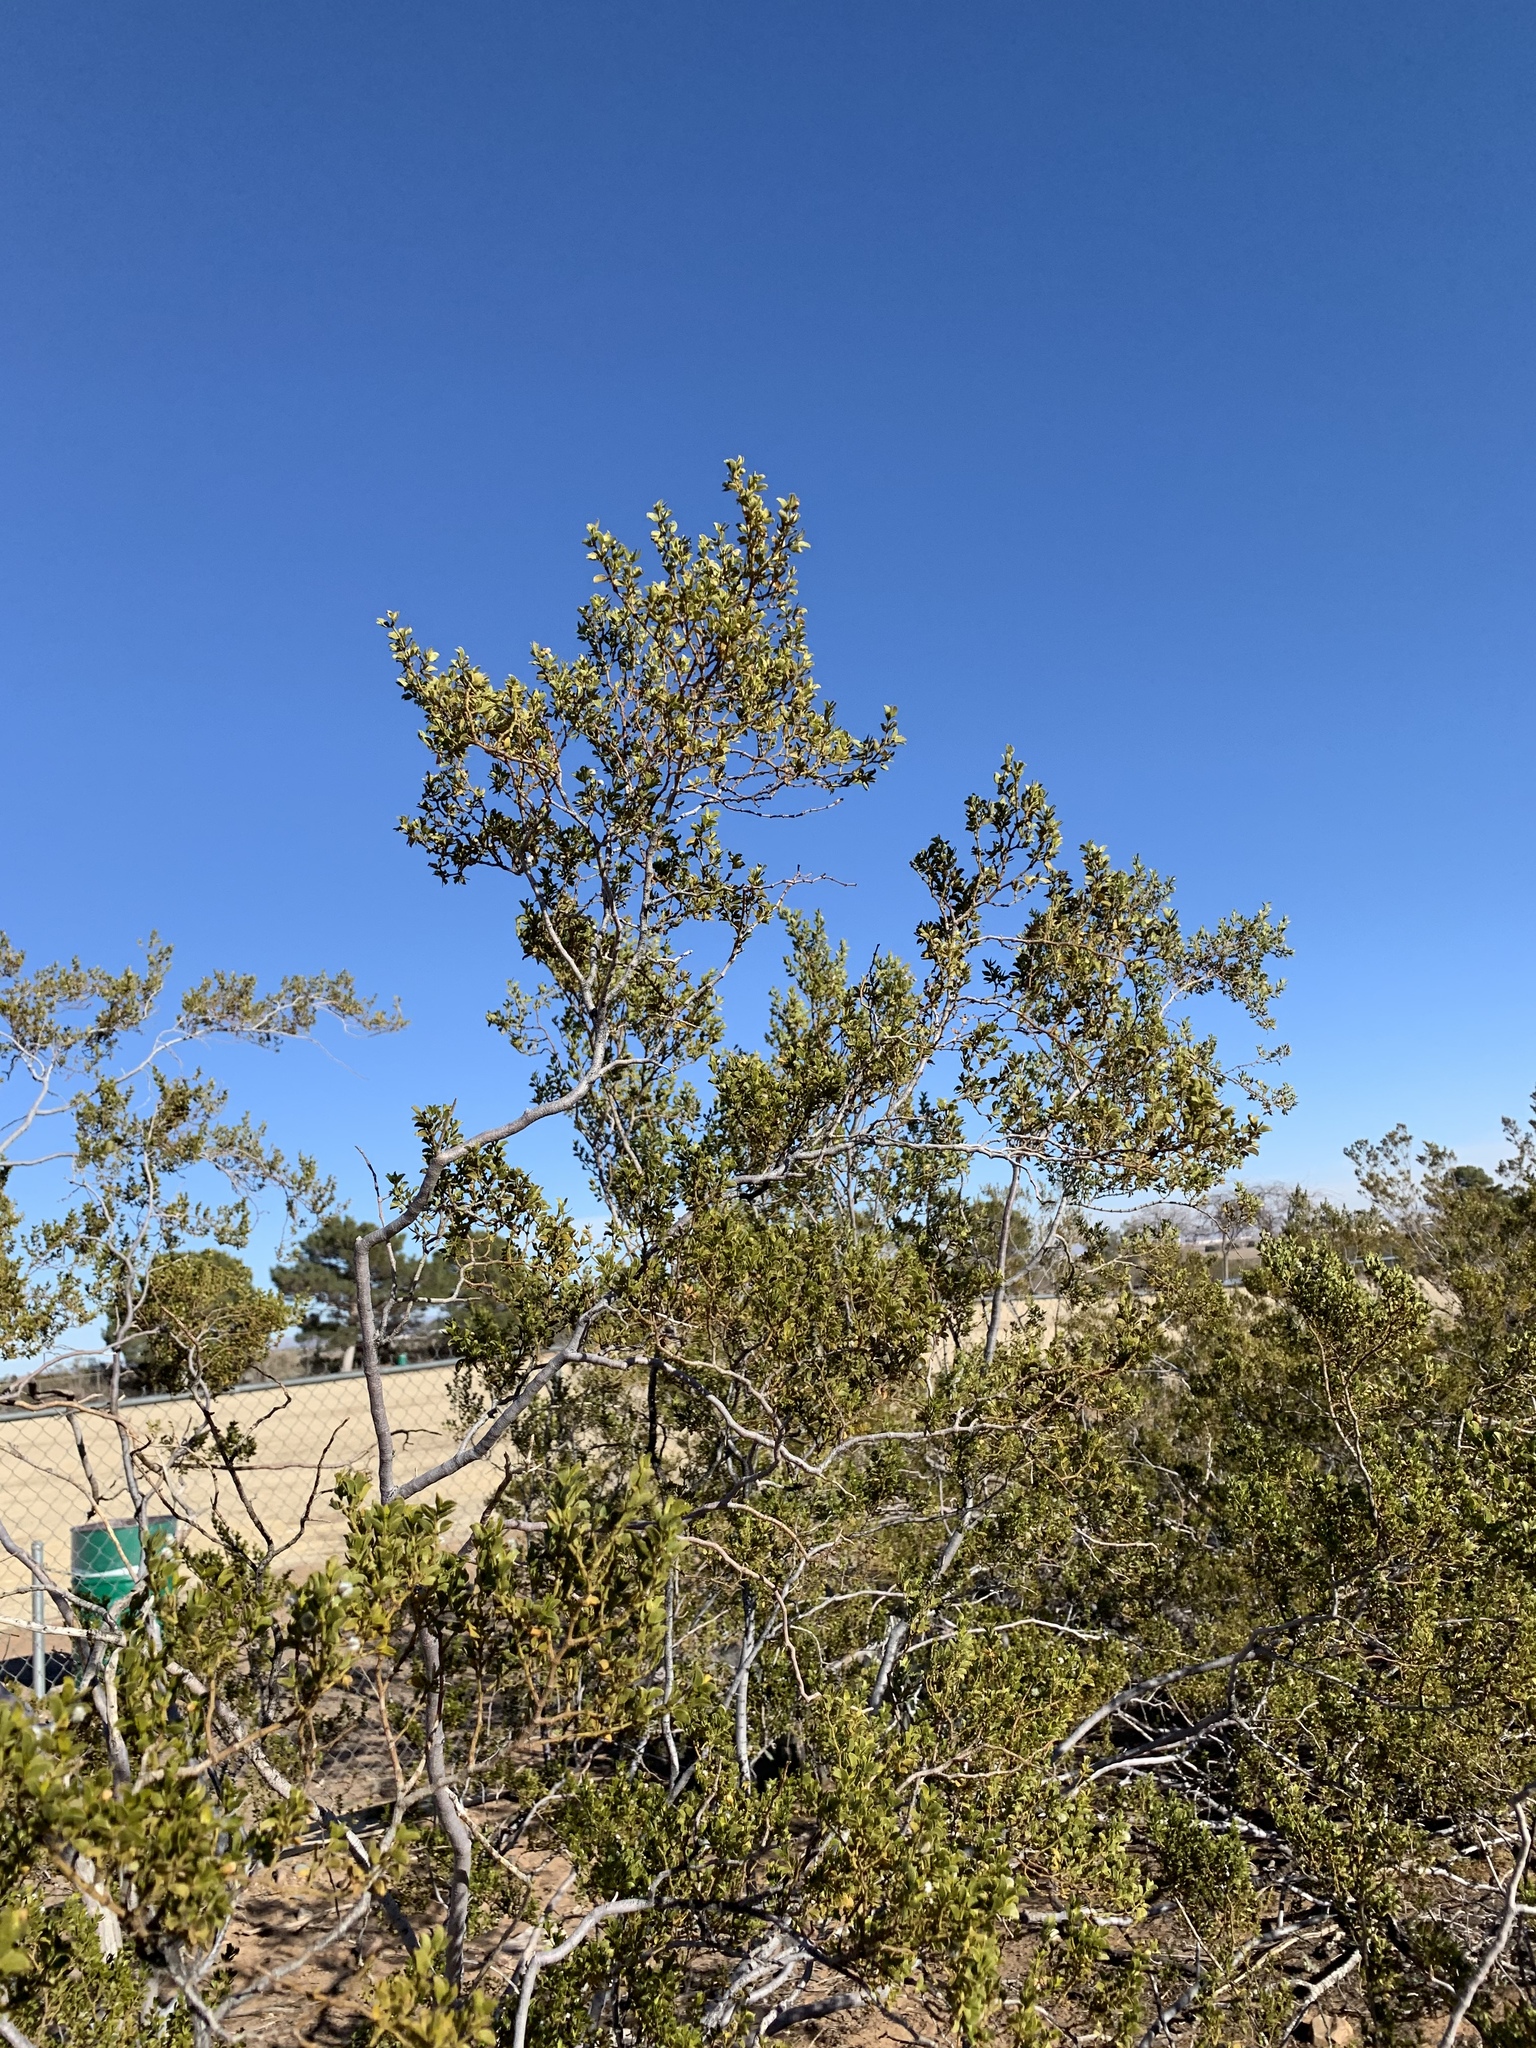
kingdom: Plantae
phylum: Tracheophyta
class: Magnoliopsida
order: Zygophyllales
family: Zygophyllaceae
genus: Larrea
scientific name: Larrea tridentata
